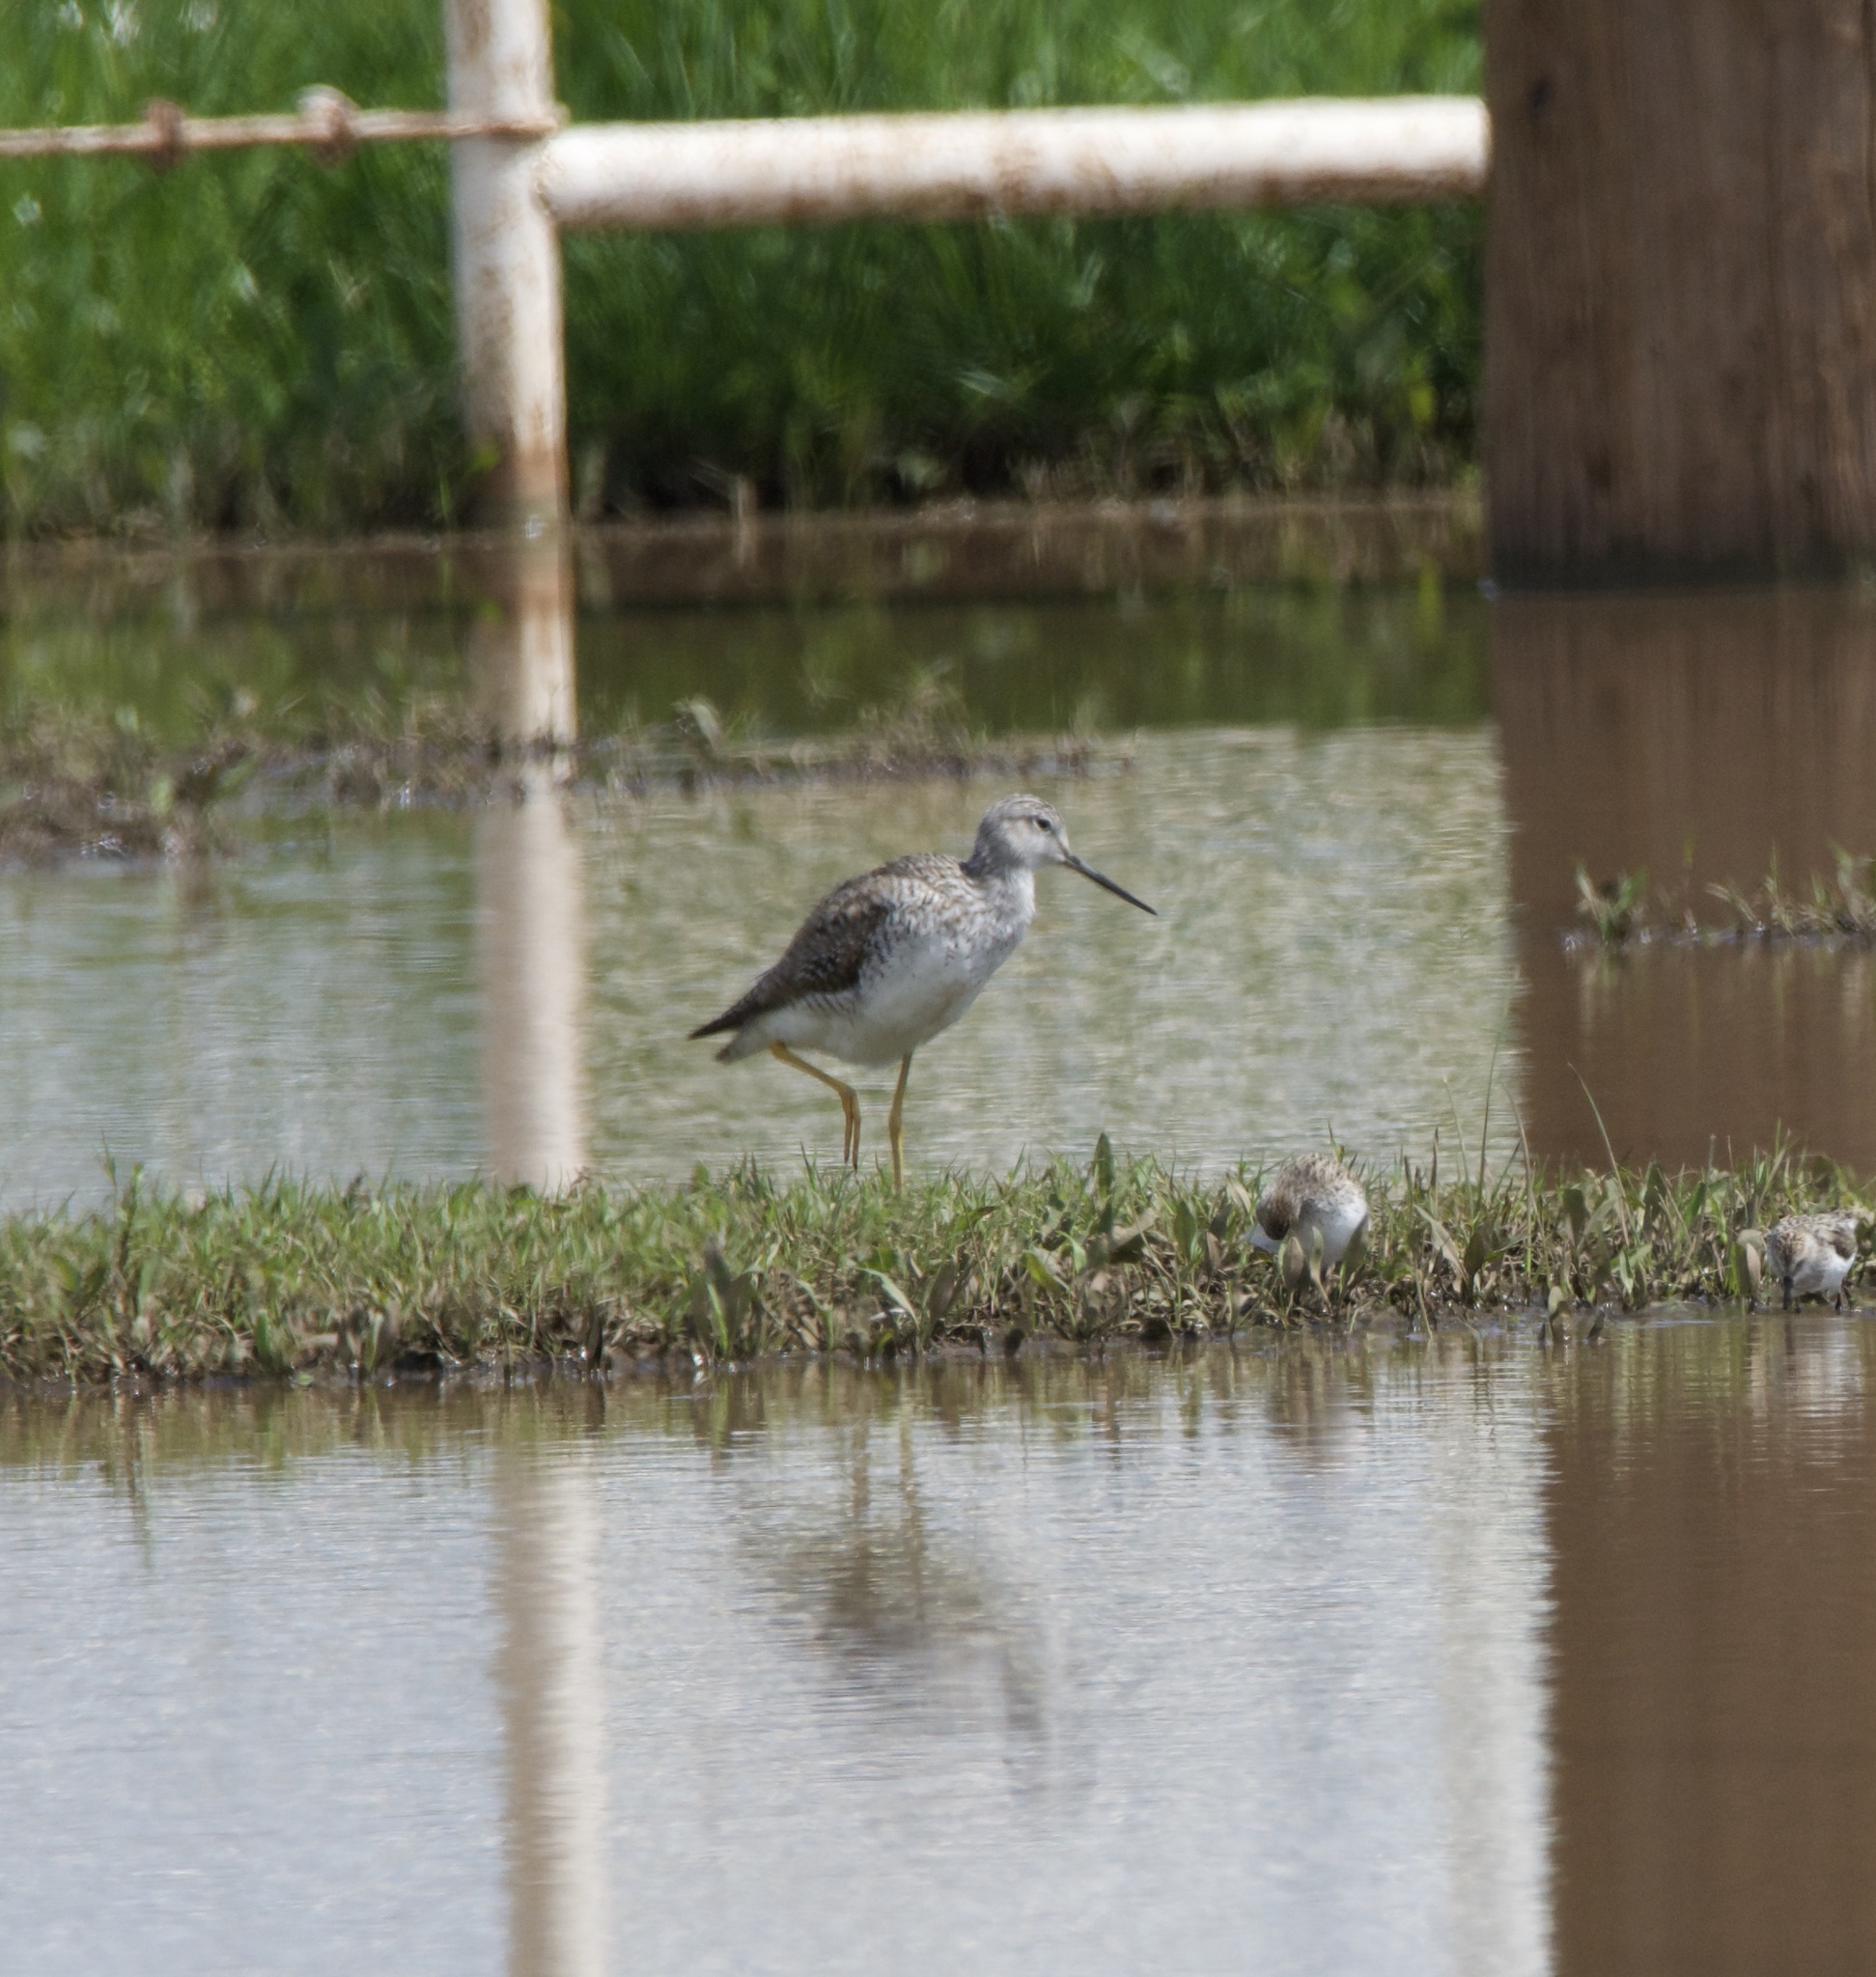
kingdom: Animalia
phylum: Chordata
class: Aves
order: Charadriiformes
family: Scolopacidae
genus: Tringa
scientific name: Tringa melanoleuca
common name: Greater yellowlegs
